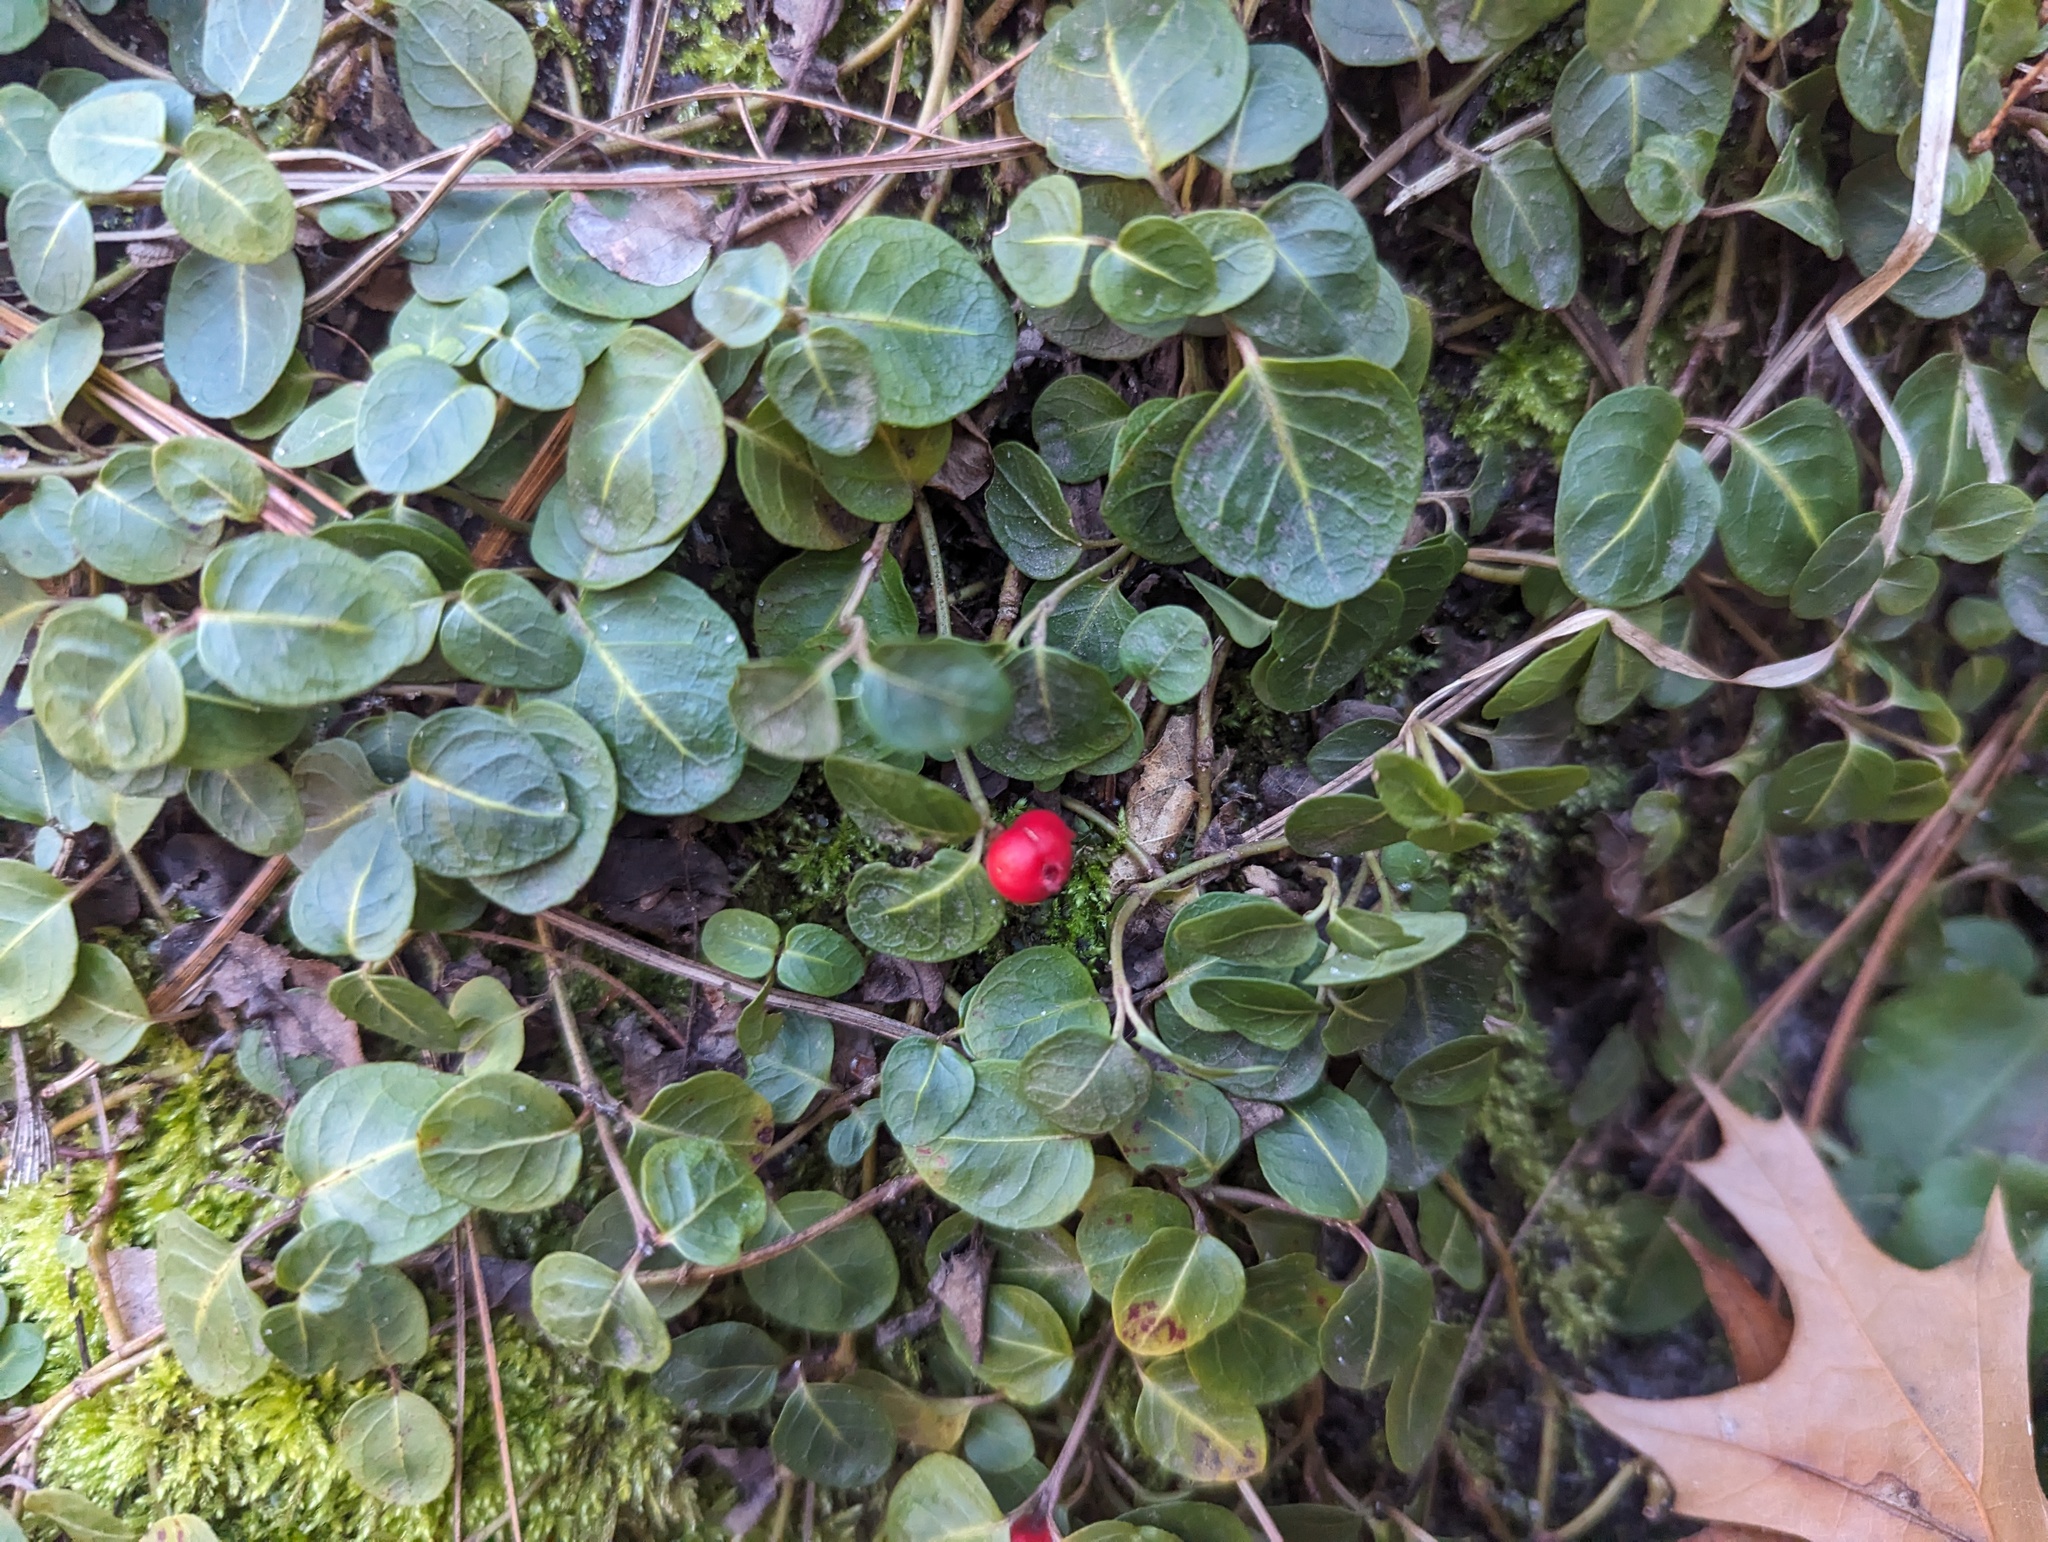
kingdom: Plantae
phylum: Tracheophyta
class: Magnoliopsida
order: Gentianales
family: Rubiaceae
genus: Mitchella
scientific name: Mitchella repens
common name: Partridge-berry
